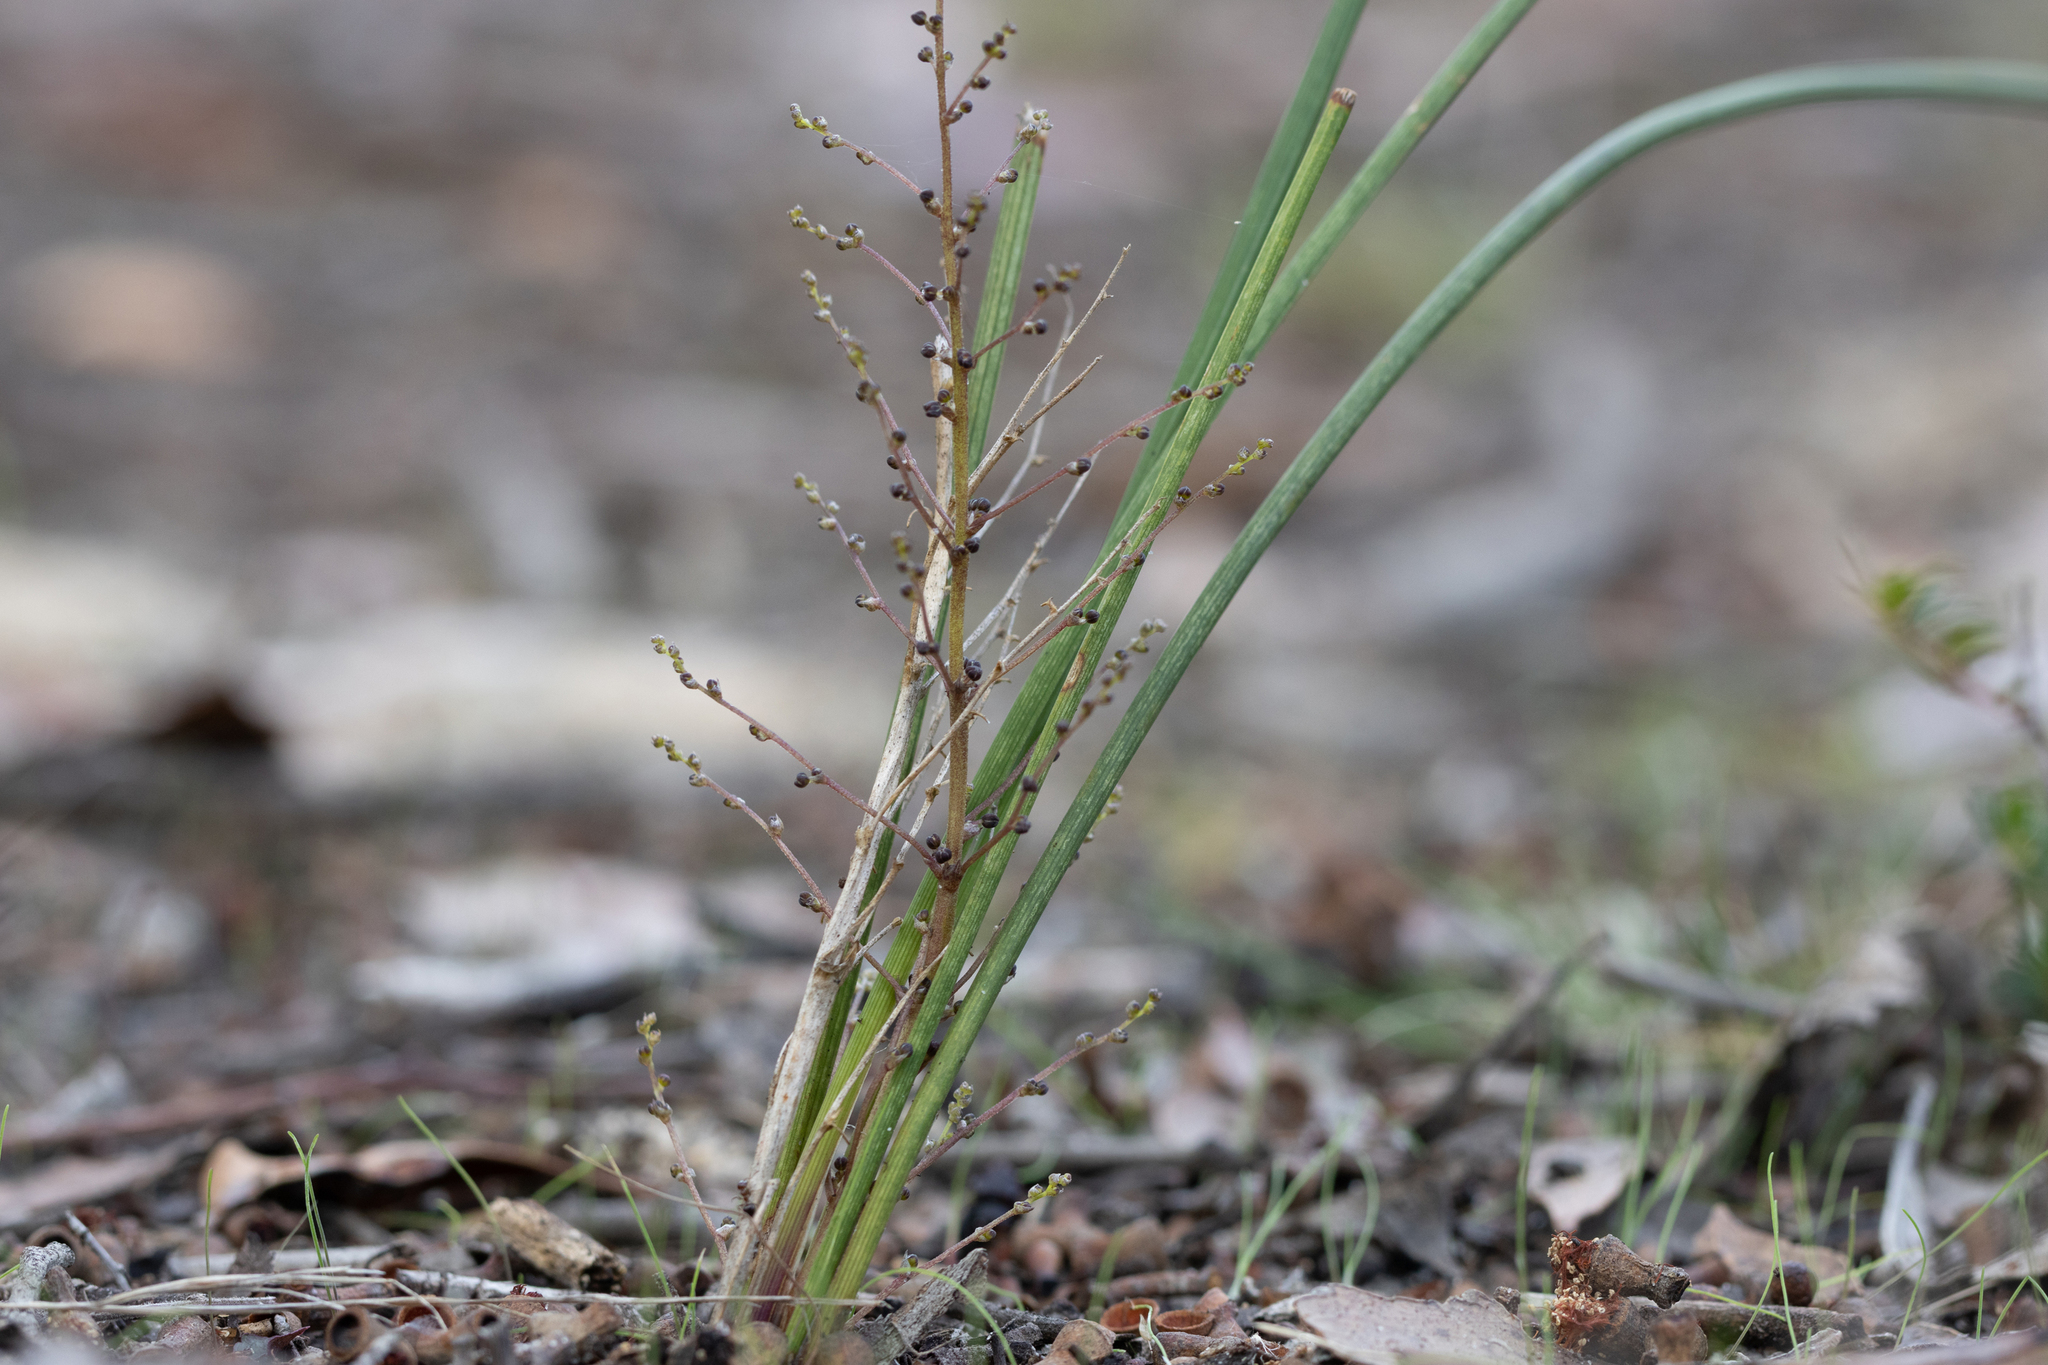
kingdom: Plantae
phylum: Tracheophyta
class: Liliopsida
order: Asparagales
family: Asparagaceae
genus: Lomandra
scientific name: Lomandra micrantha
